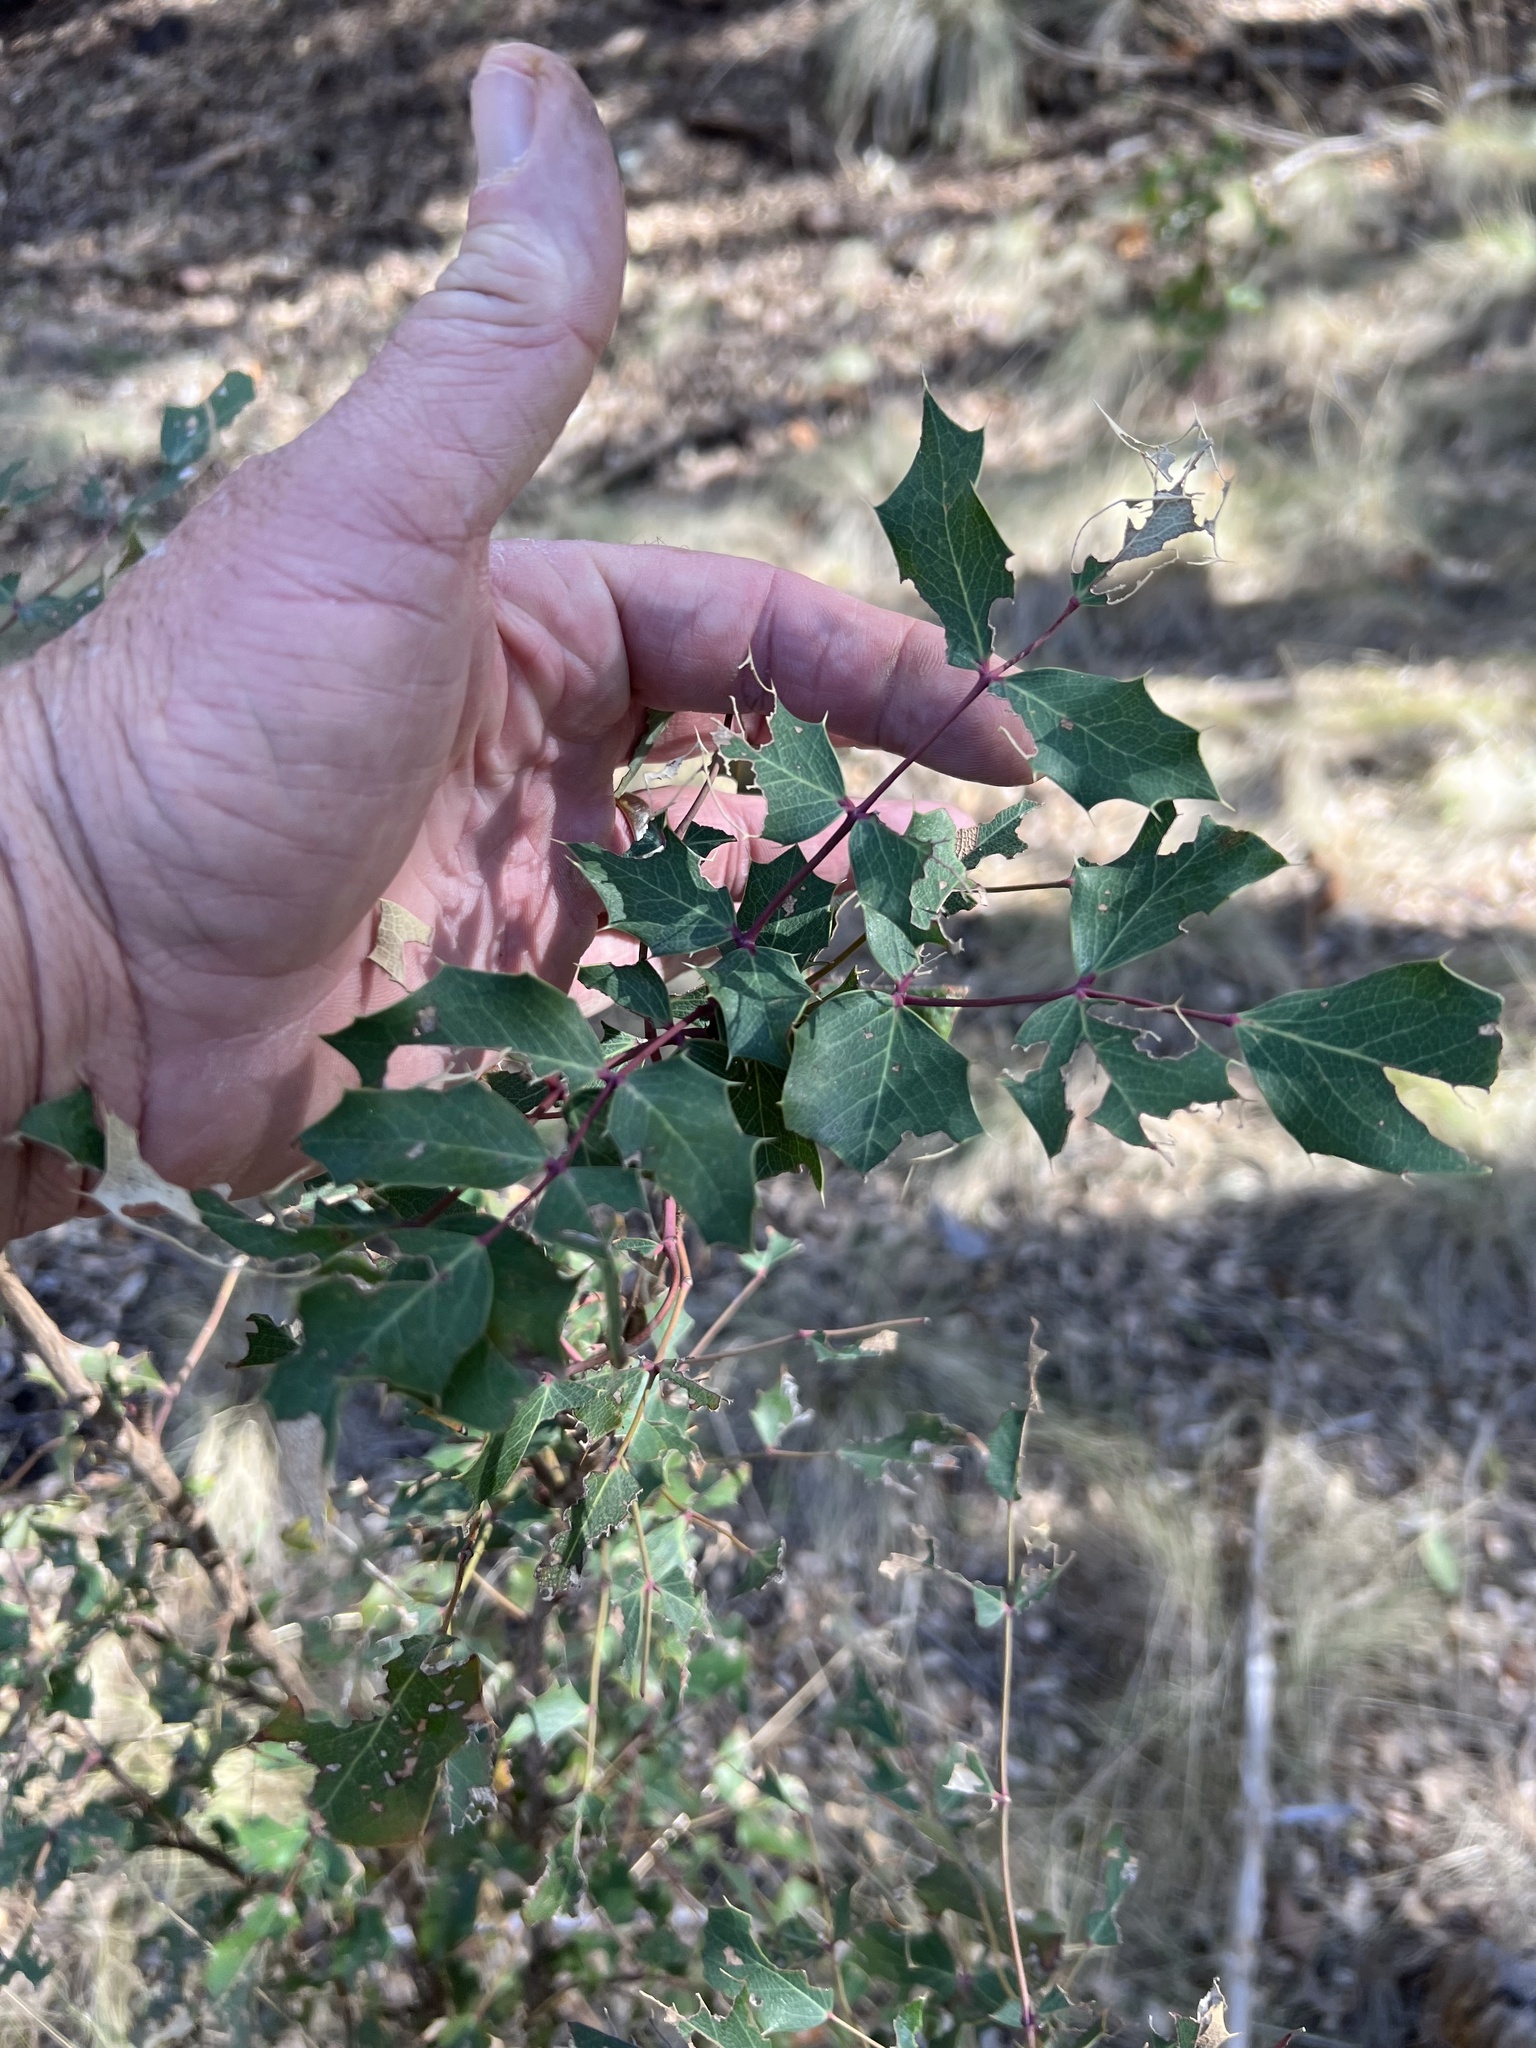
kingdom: Plantae
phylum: Tracheophyta
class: Magnoliopsida
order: Ranunculales
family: Berberidaceae
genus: Mahonia
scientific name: Mahonia wilcoxii
